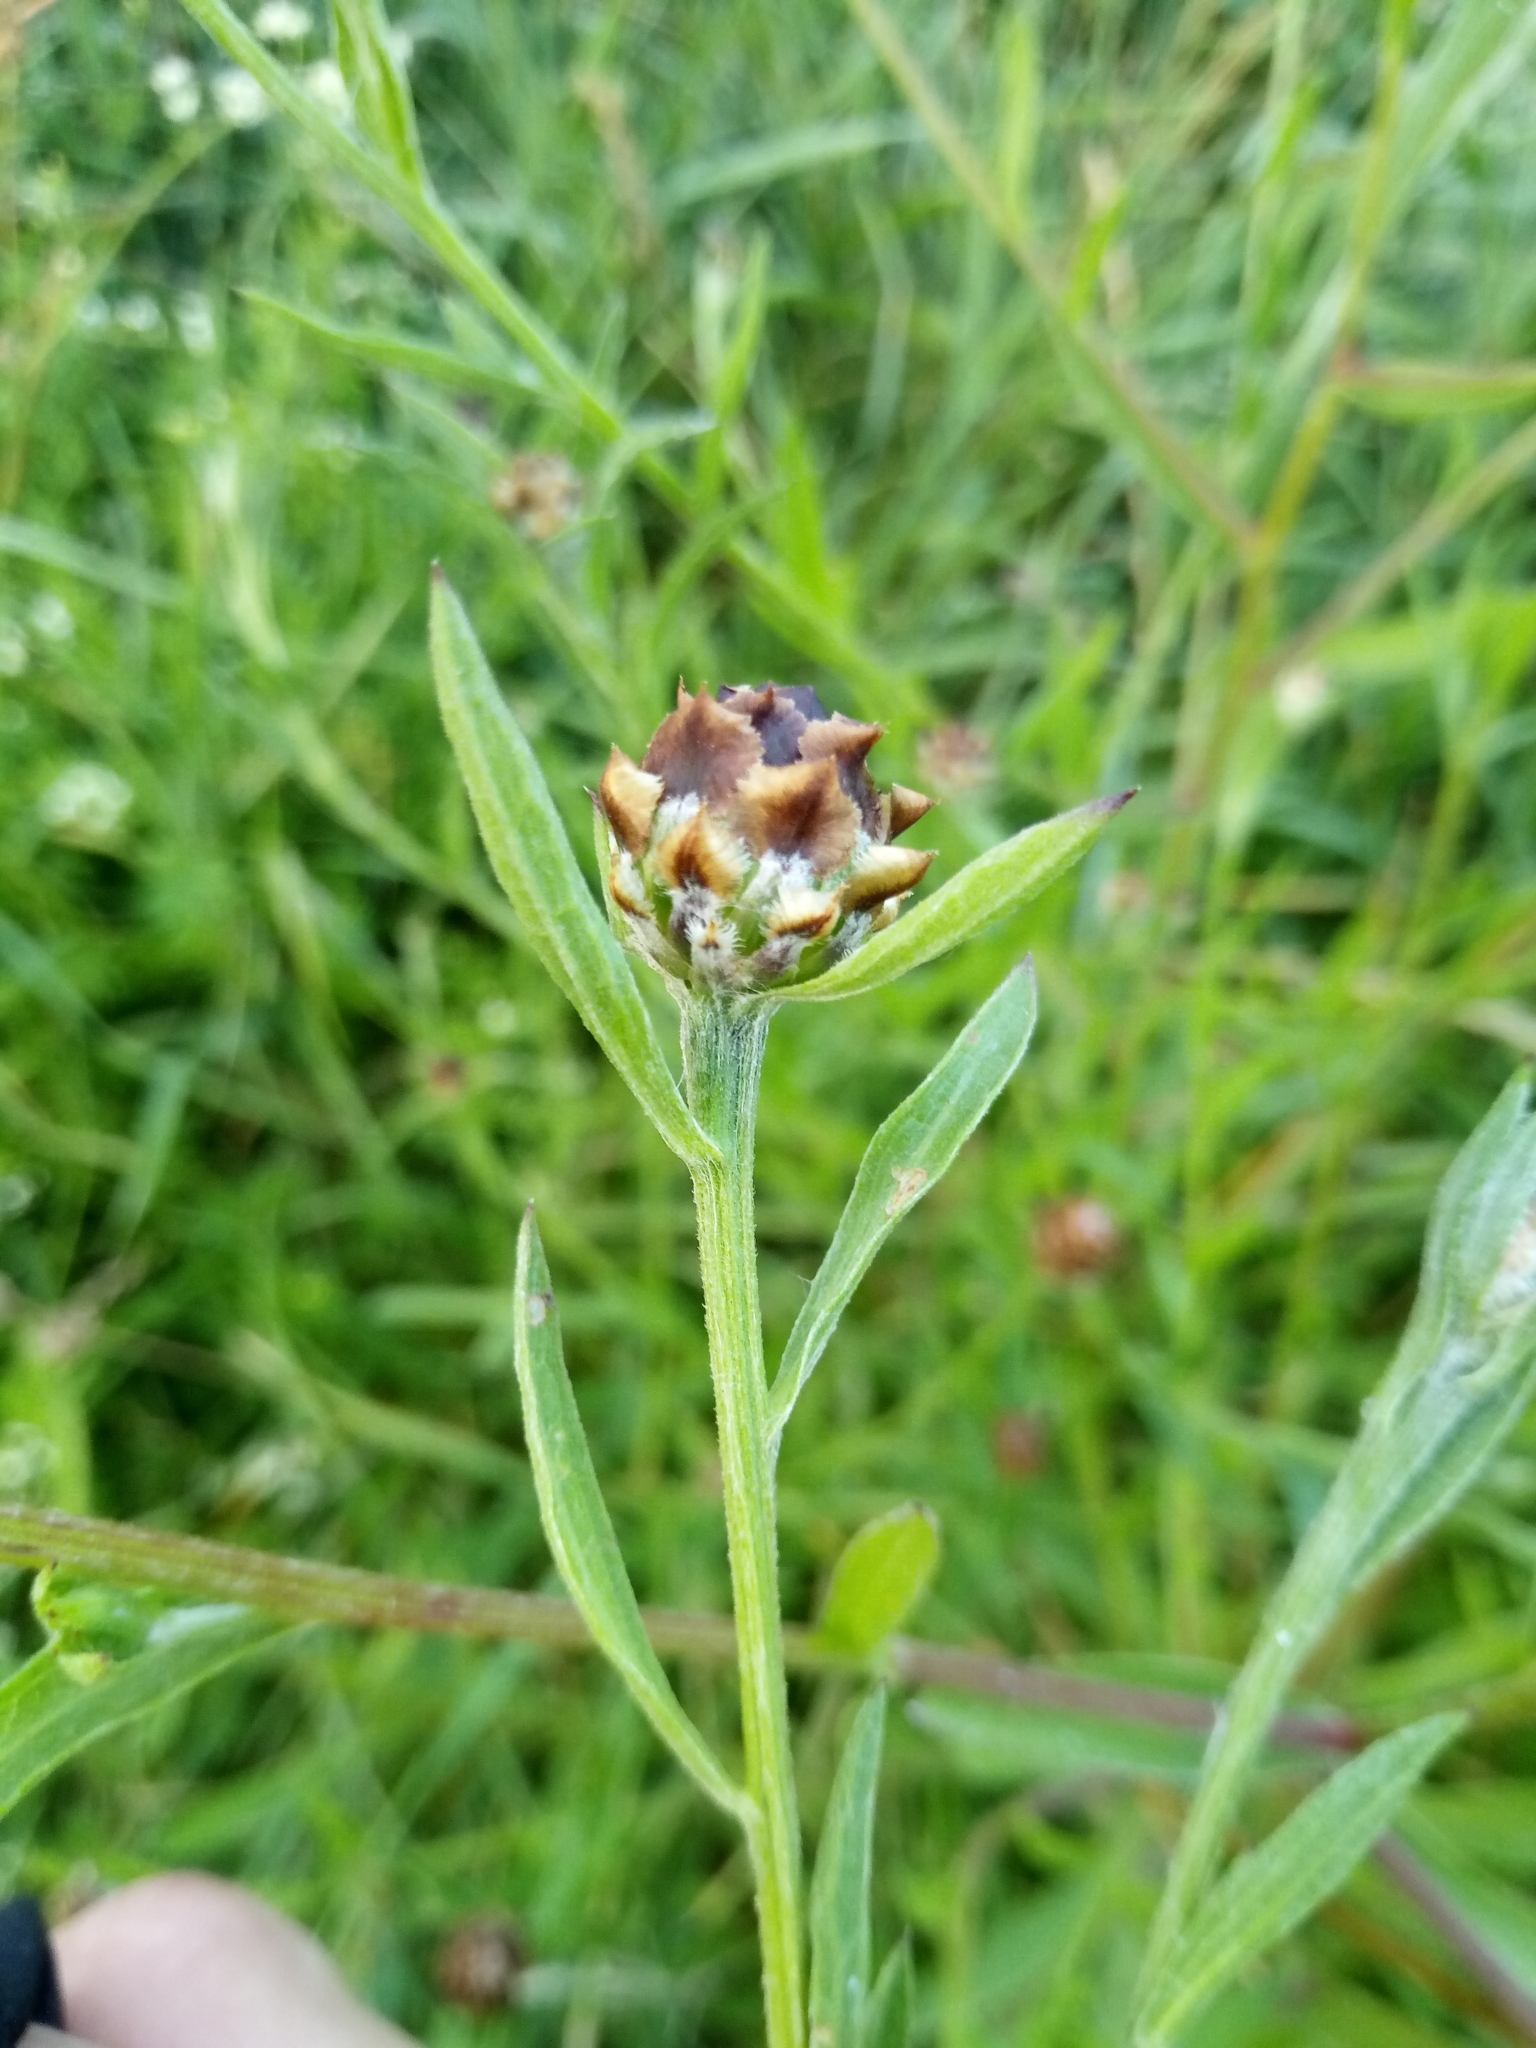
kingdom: Plantae
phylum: Tracheophyta
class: Magnoliopsida
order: Asterales
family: Asteraceae
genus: Centaurea
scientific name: Centaurea jacea
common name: Brown knapweed
